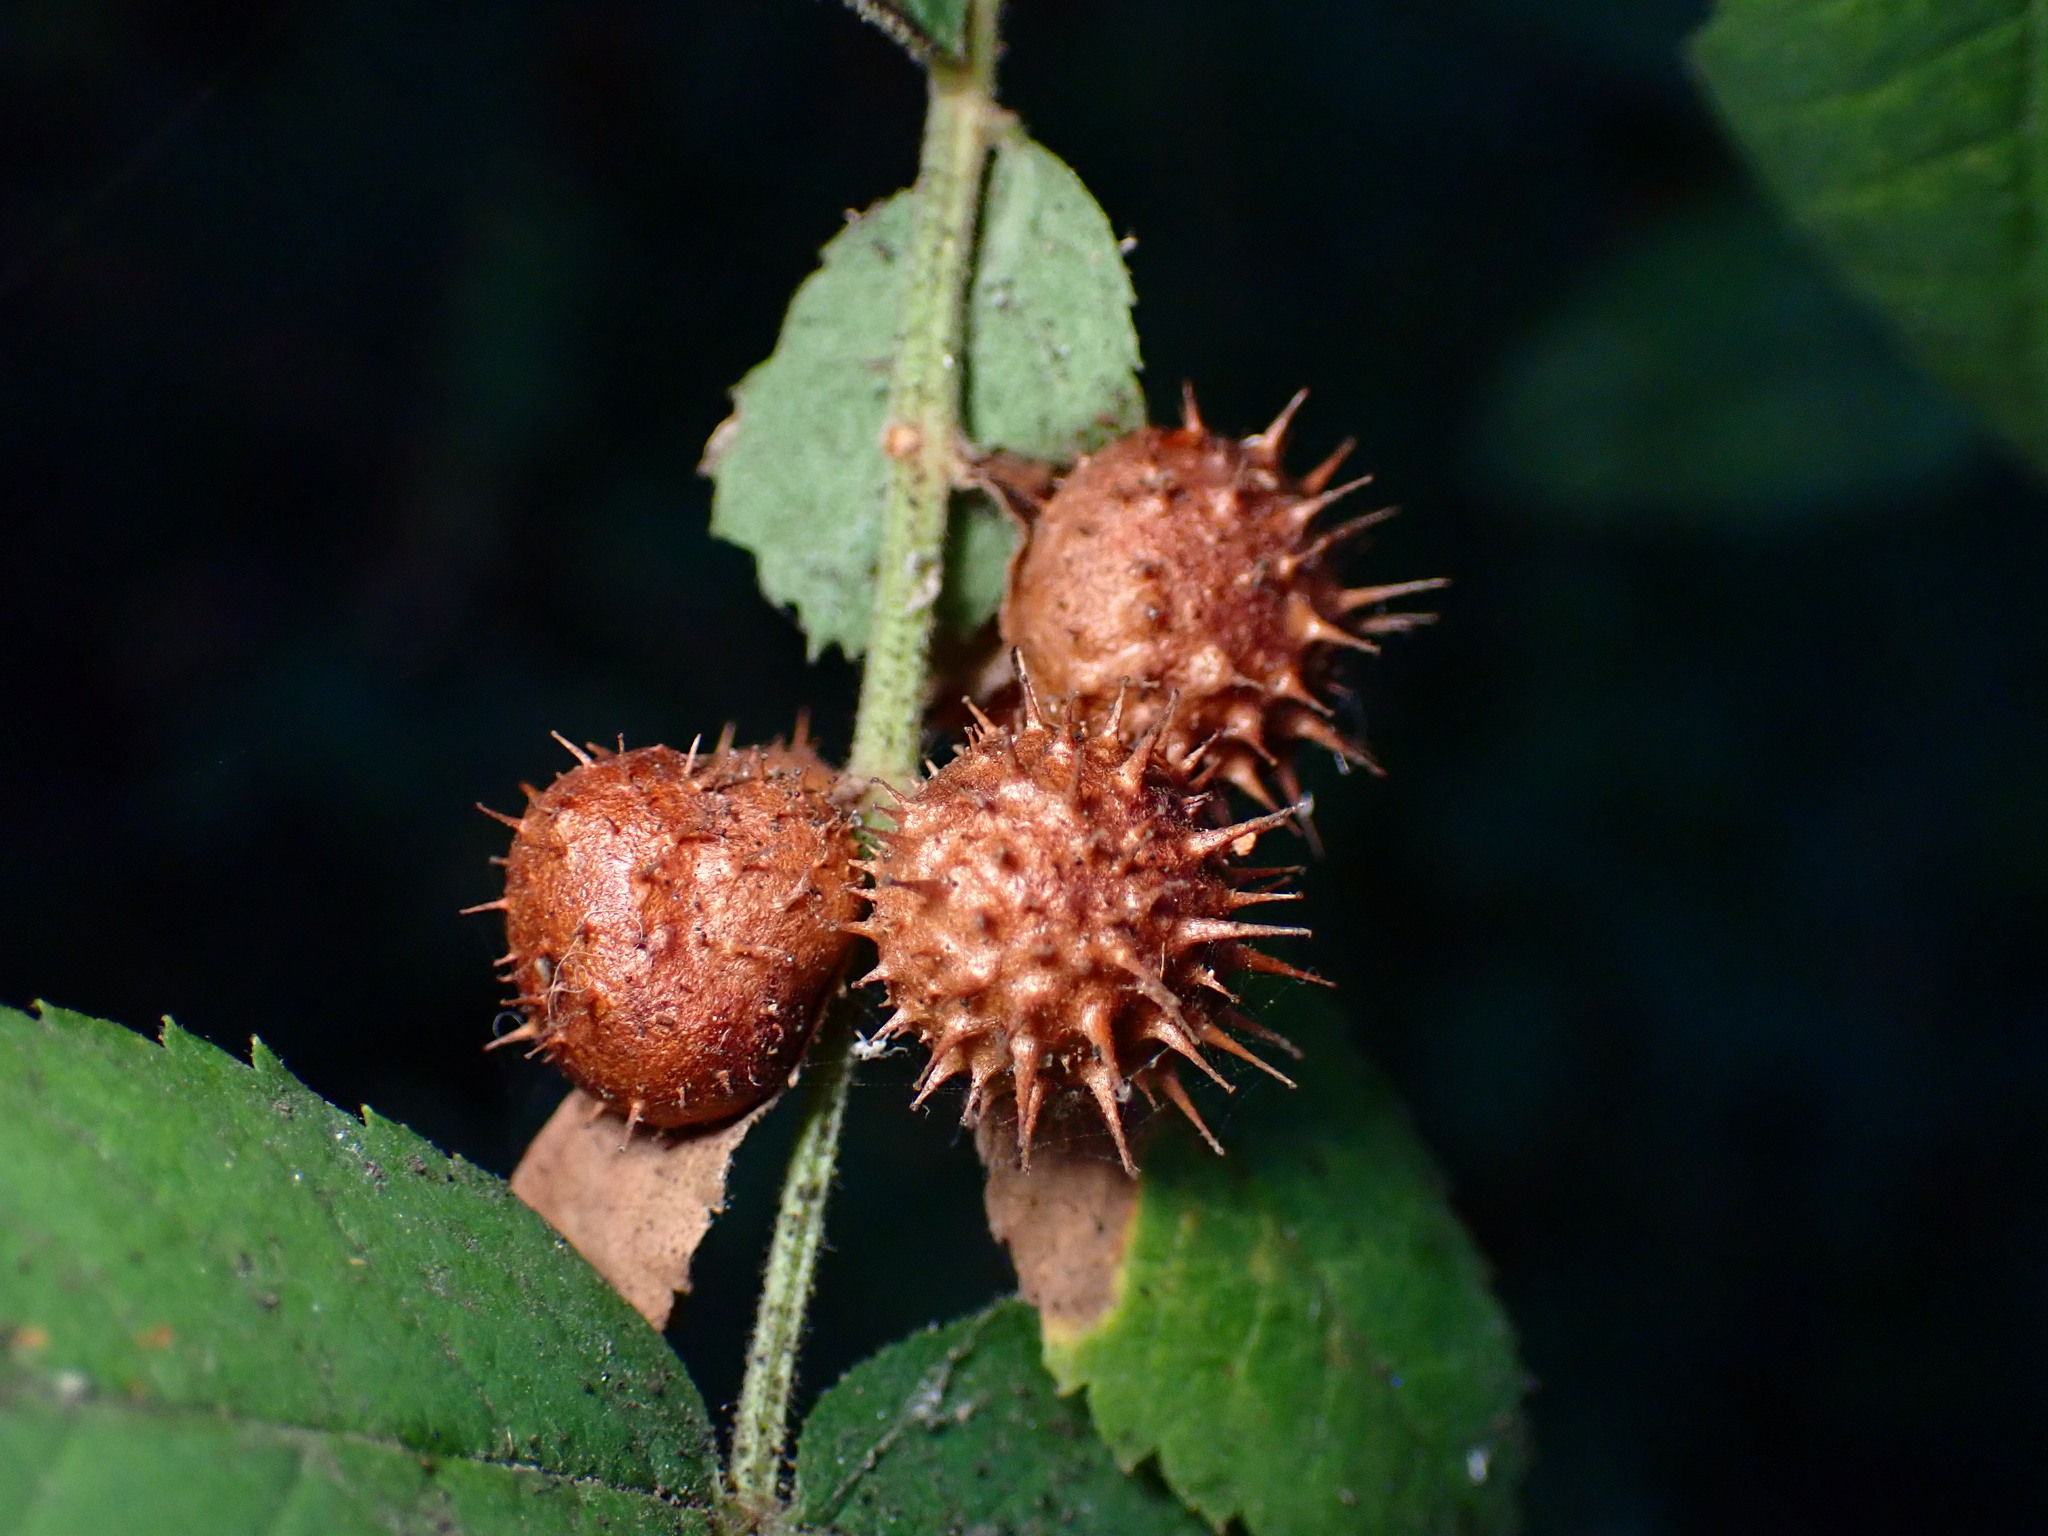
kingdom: Animalia
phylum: Arthropoda
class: Insecta
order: Hymenoptera
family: Cynipidae
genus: Diplolepis
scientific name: Diplolepis polita
